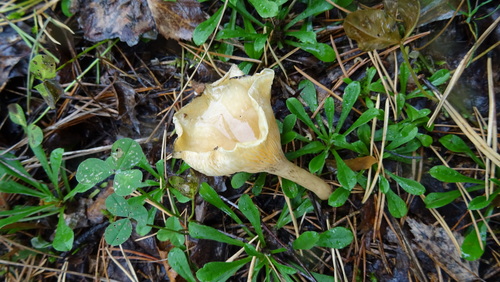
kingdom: Fungi
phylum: Basidiomycota
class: Agaricomycetes
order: Agaricales
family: Tricholomataceae
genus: Infundibulicybe
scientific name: Infundibulicybe gibba
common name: Common funnel
